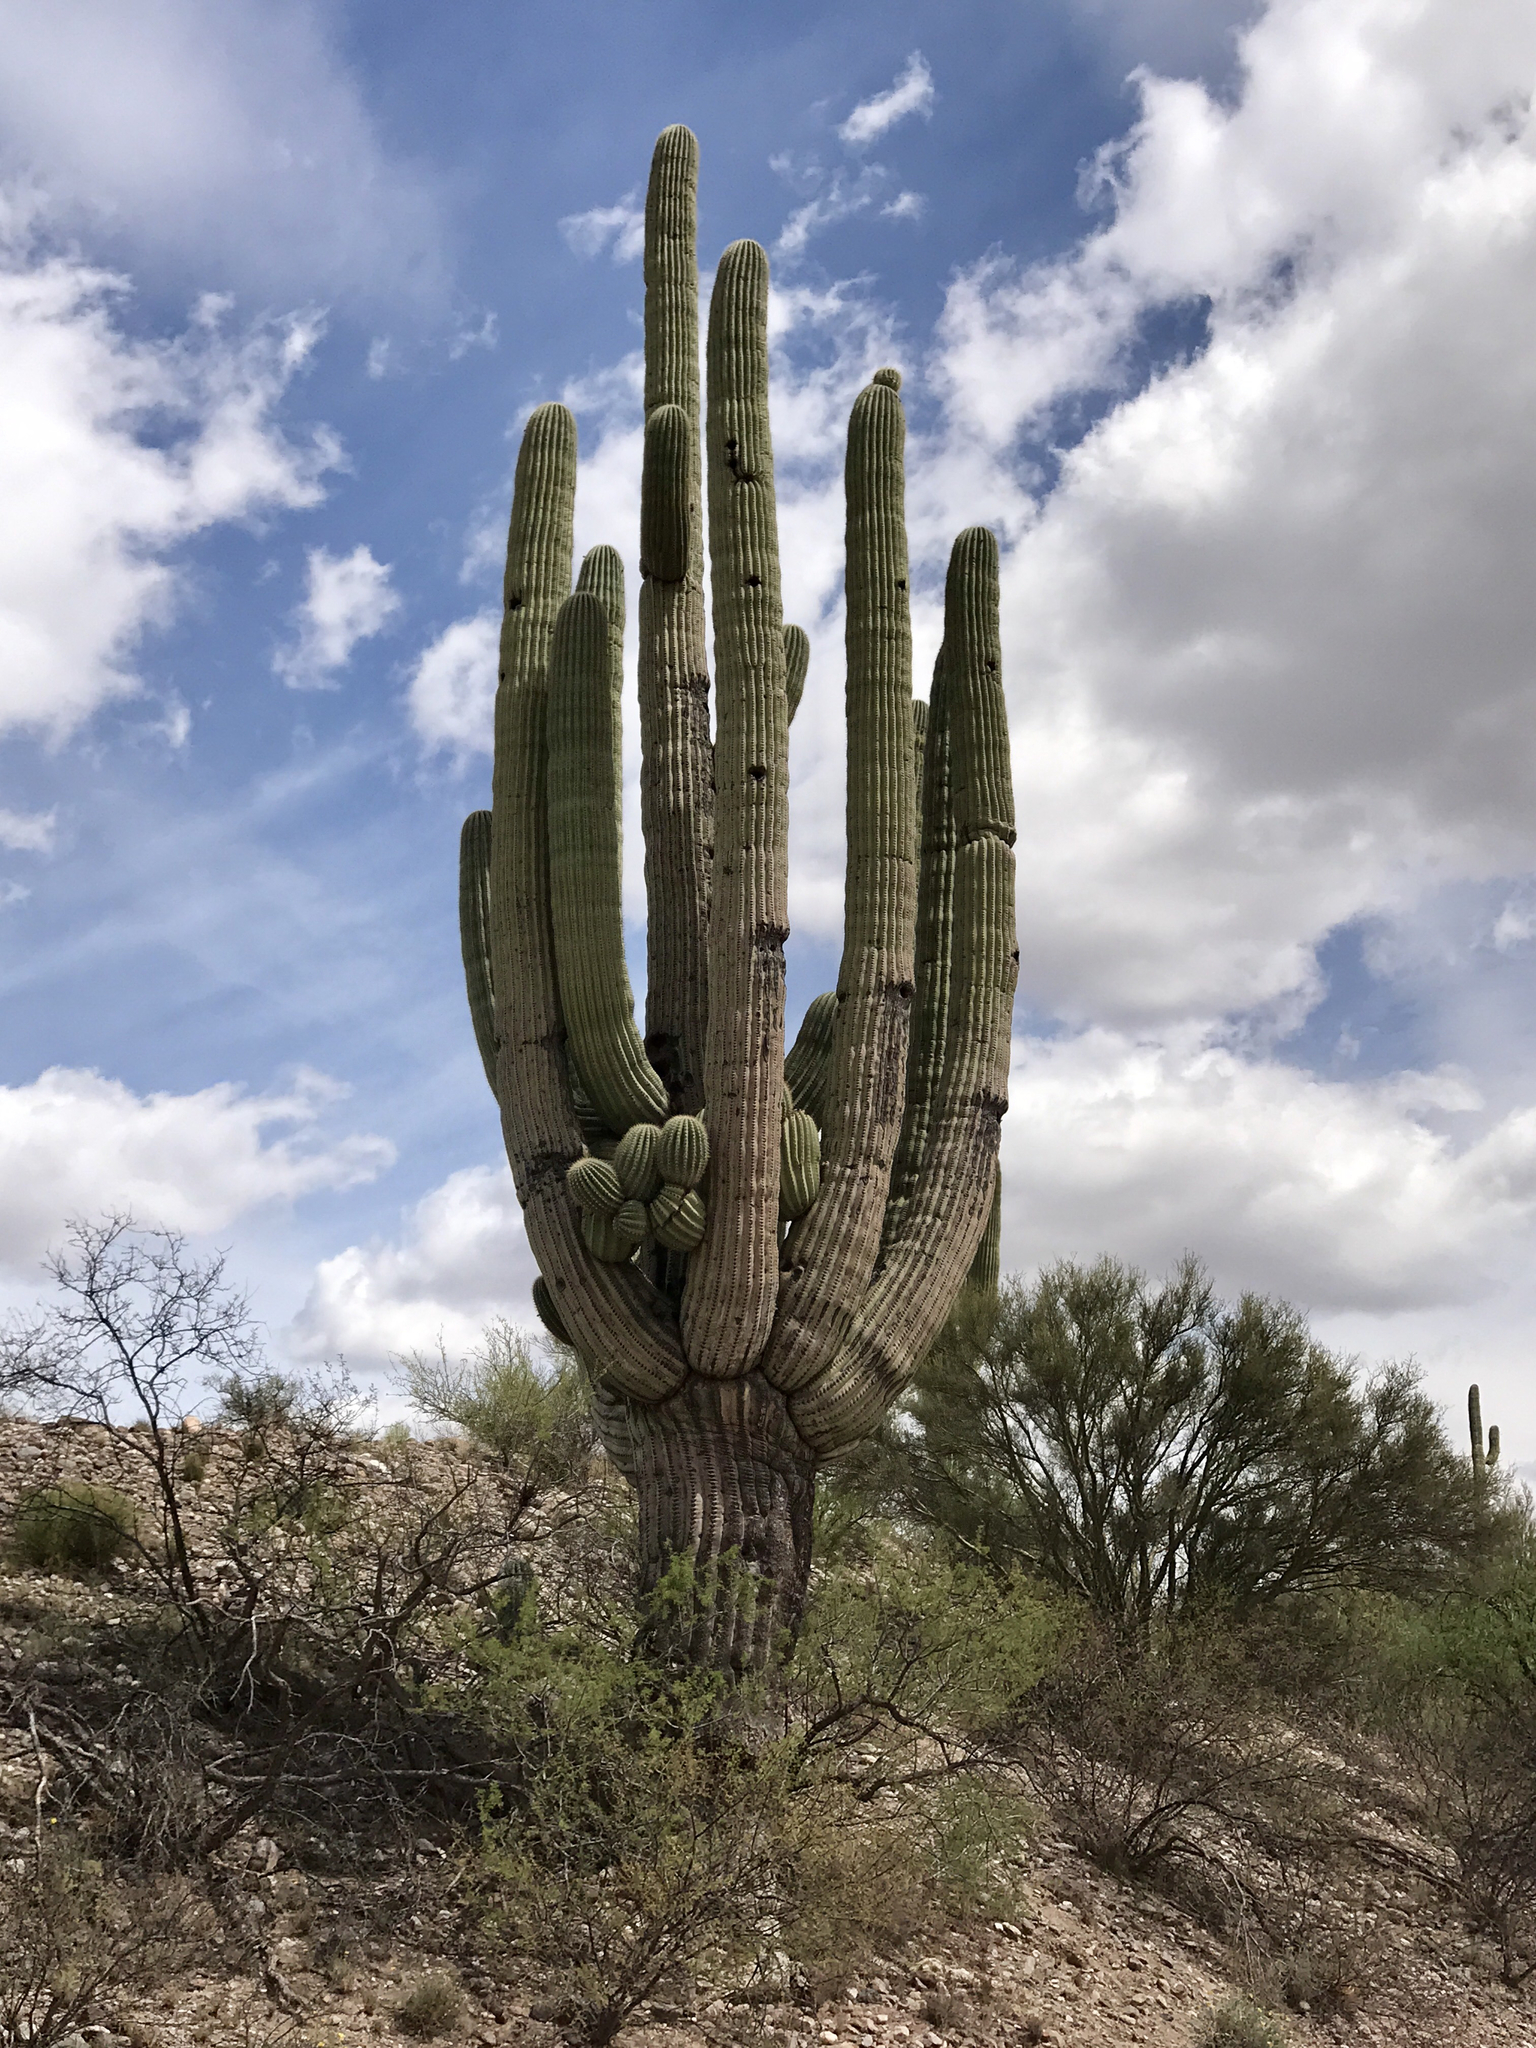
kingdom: Plantae
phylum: Tracheophyta
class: Magnoliopsida
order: Caryophyllales
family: Cactaceae
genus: Carnegiea
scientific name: Carnegiea gigantea
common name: Saguaro
